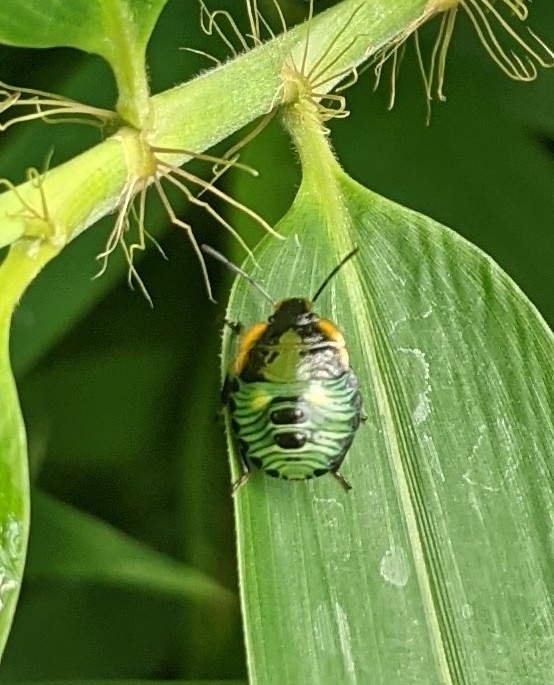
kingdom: Animalia
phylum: Arthropoda
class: Insecta
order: Hemiptera
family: Pentatomidae
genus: Chinavia
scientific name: Chinavia hilaris
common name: Green stink bug
